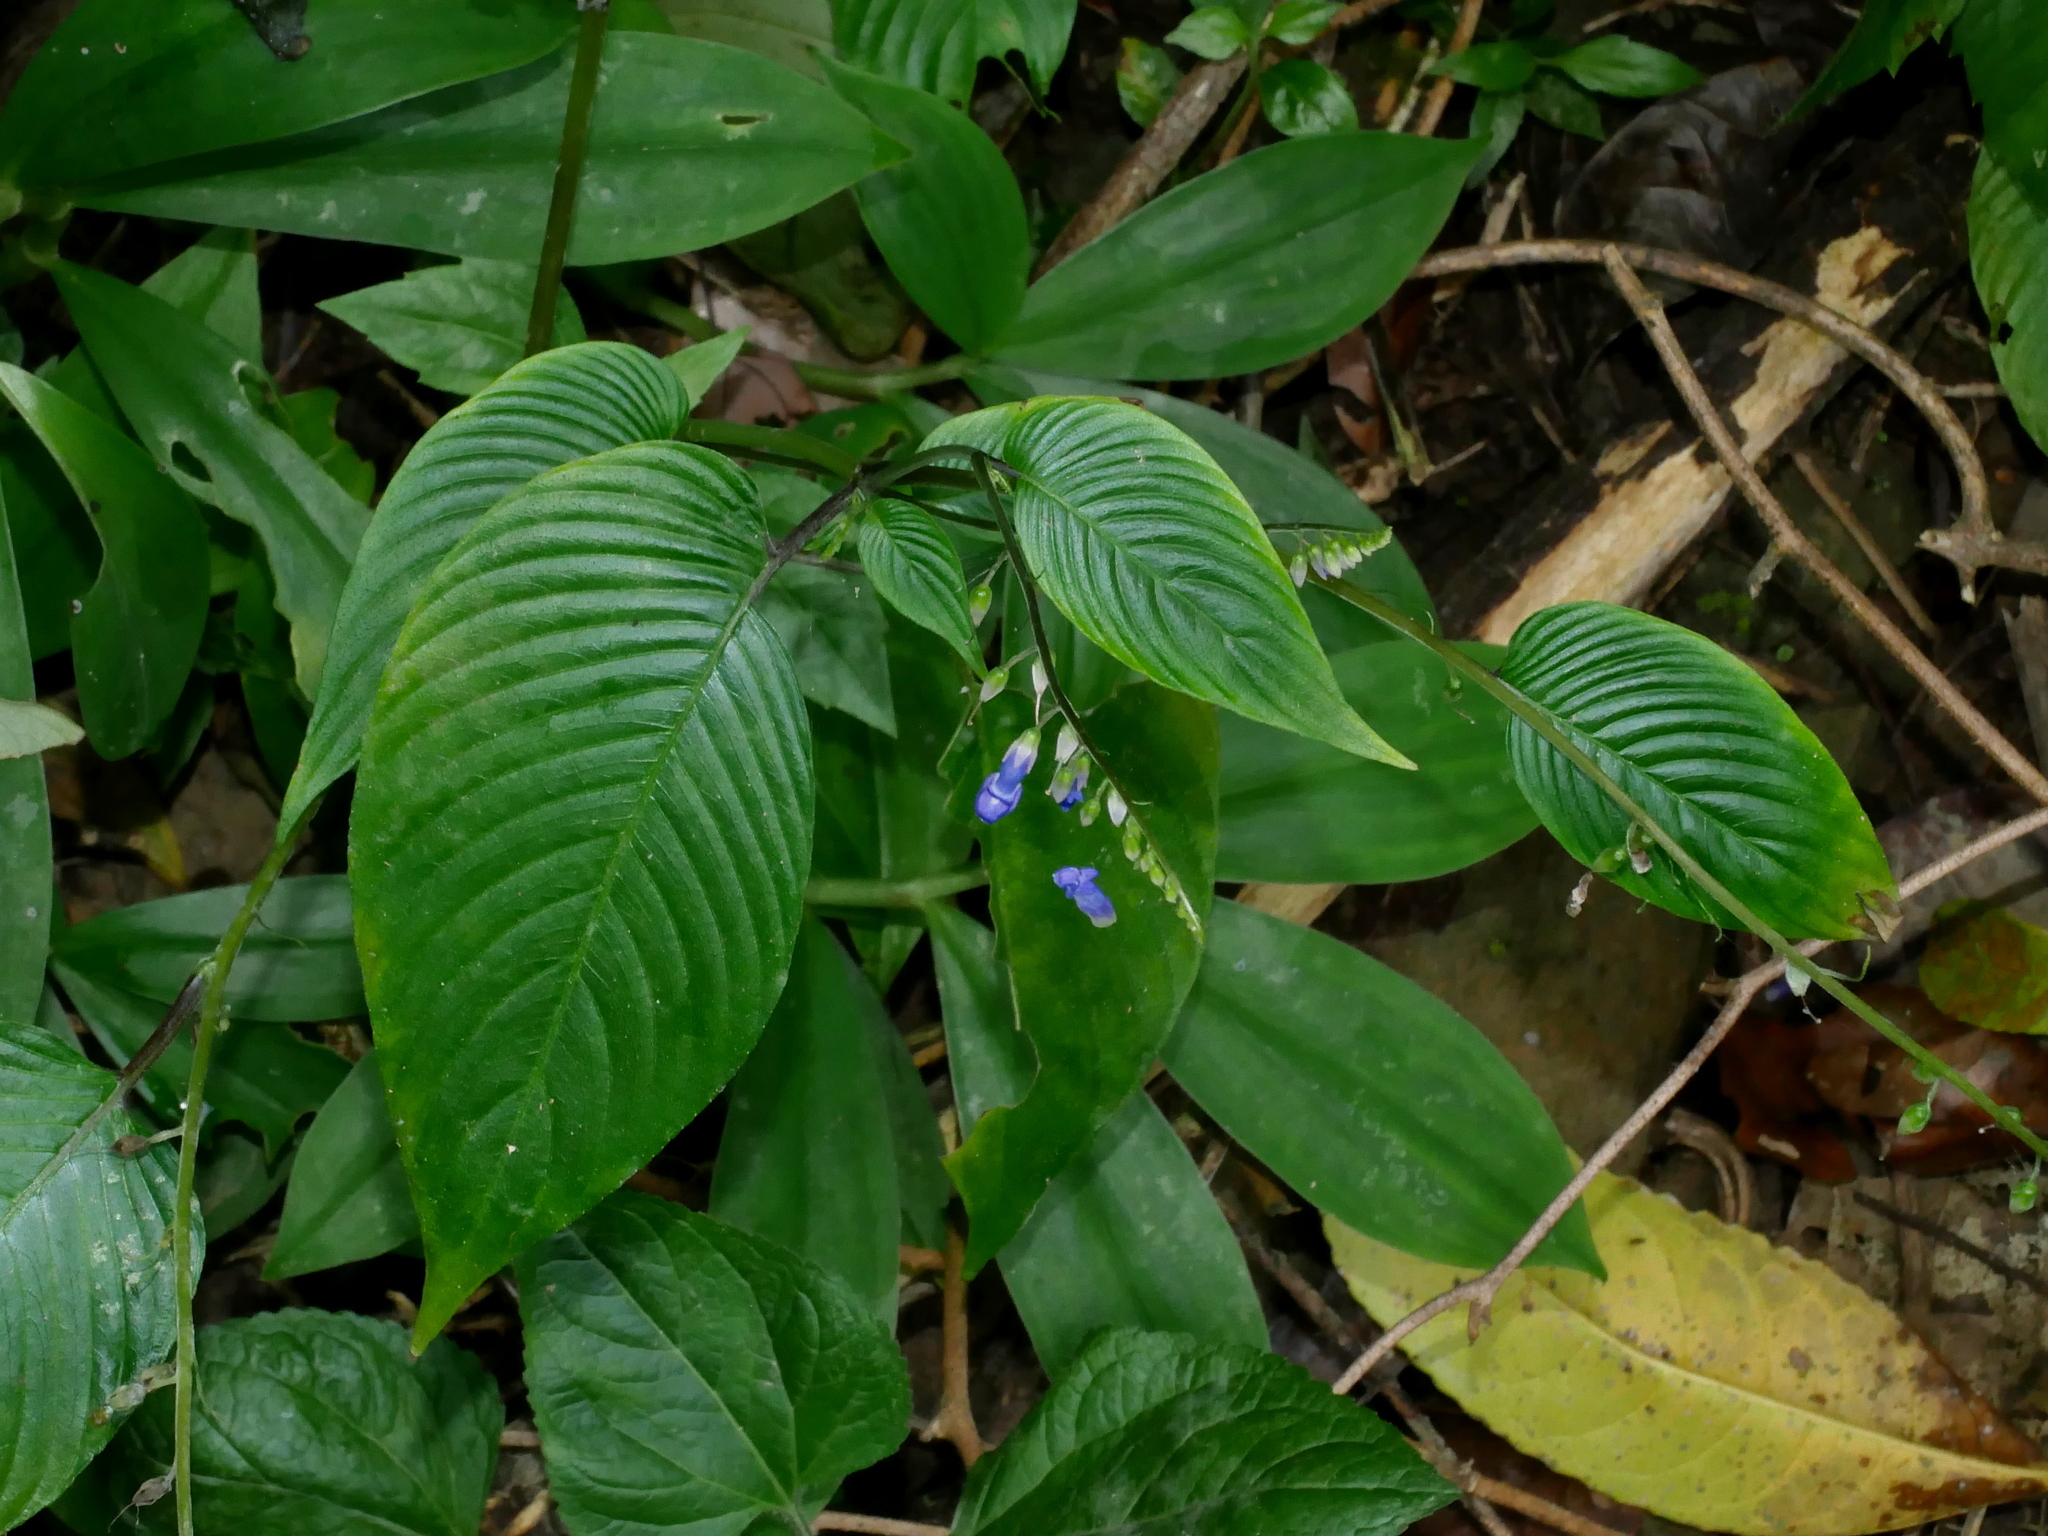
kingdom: Plantae
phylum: Tracheophyta
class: Magnoliopsida
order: Lamiales
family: Gesneriaceae
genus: Rhynchoglossum
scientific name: Rhynchoglossum obliquum
